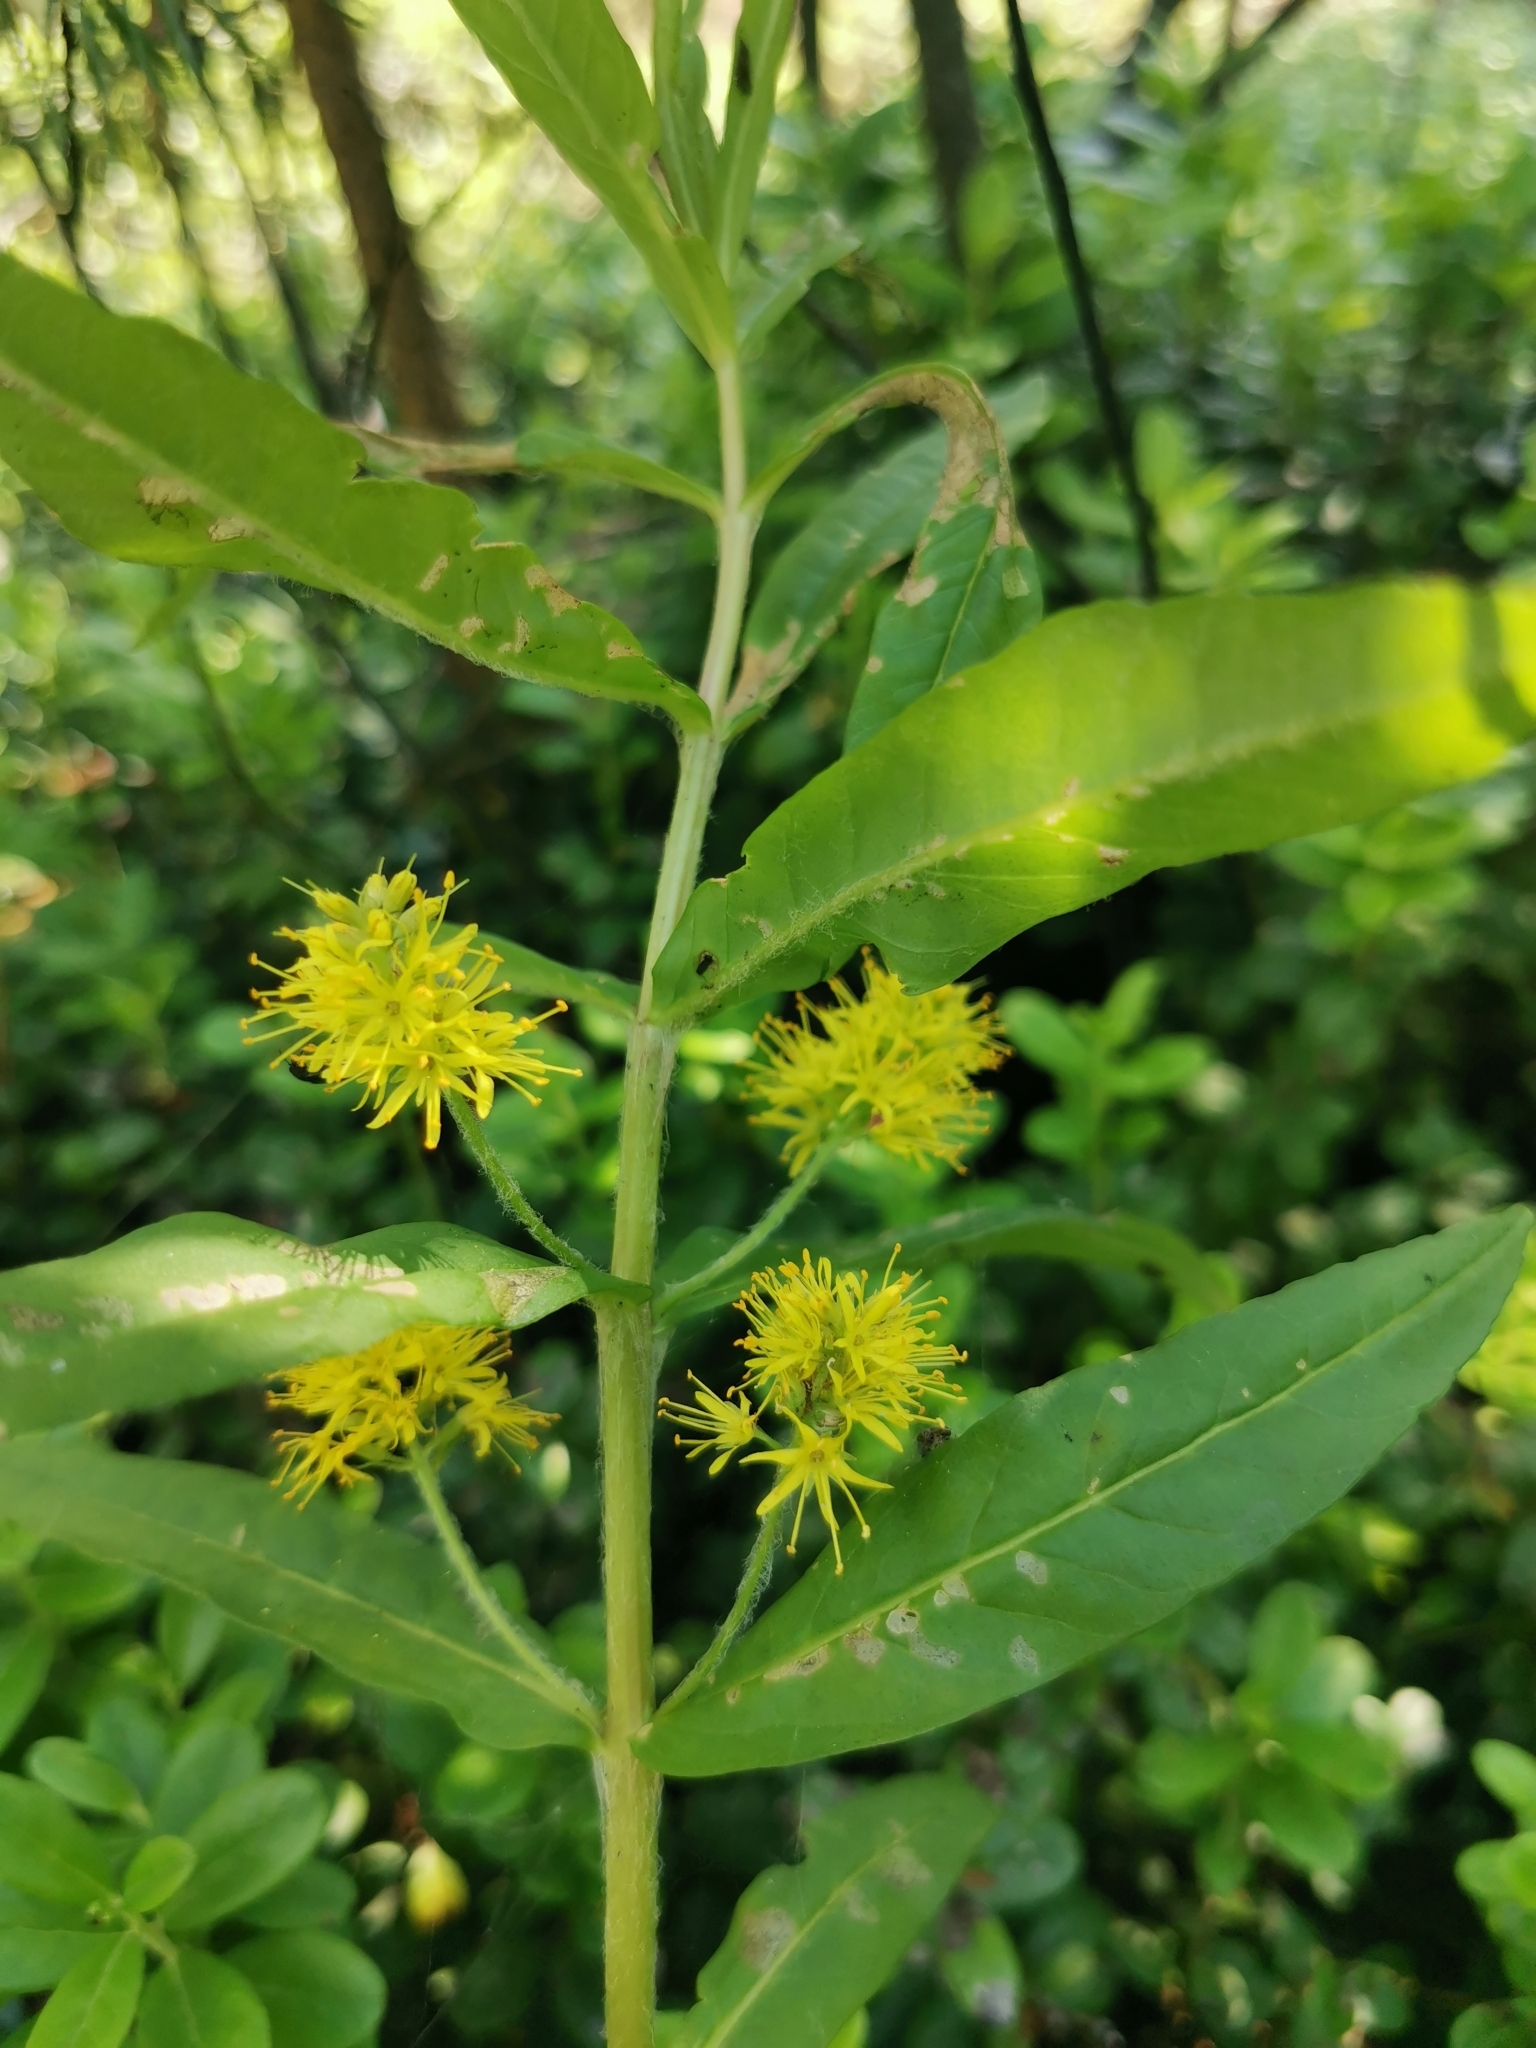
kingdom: Plantae
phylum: Tracheophyta
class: Magnoliopsida
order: Ericales
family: Primulaceae
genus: Lysimachia
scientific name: Lysimachia thyrsiflora
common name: Tufted loosestrife
